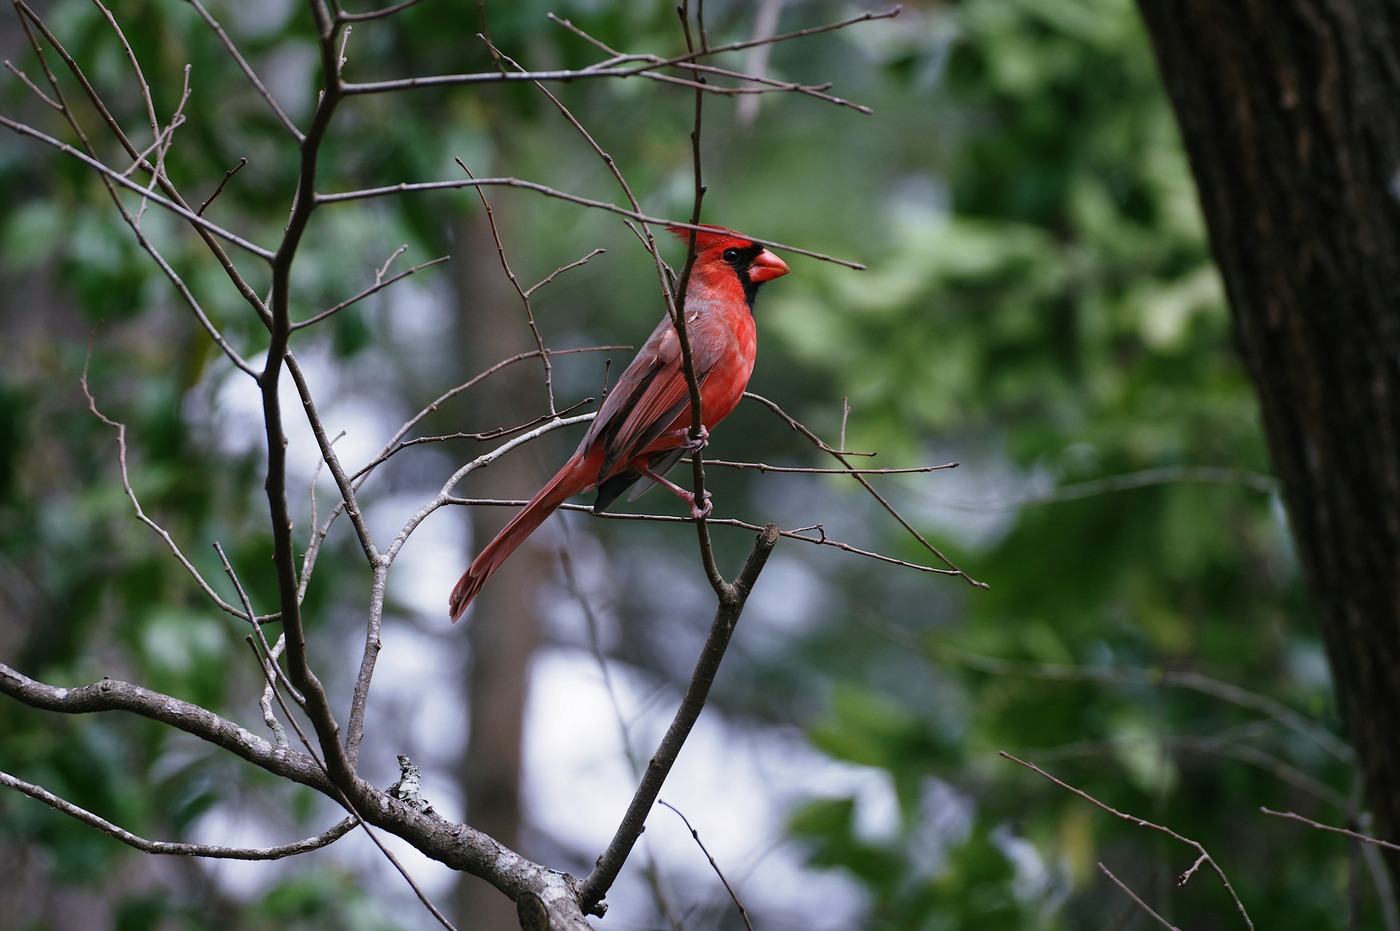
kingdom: Animalia
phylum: Chordata
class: Aves
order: Passeriformes
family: Cardinalidae
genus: Cardinalis
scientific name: Cardinalis cardinalis
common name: Northern cardinal
